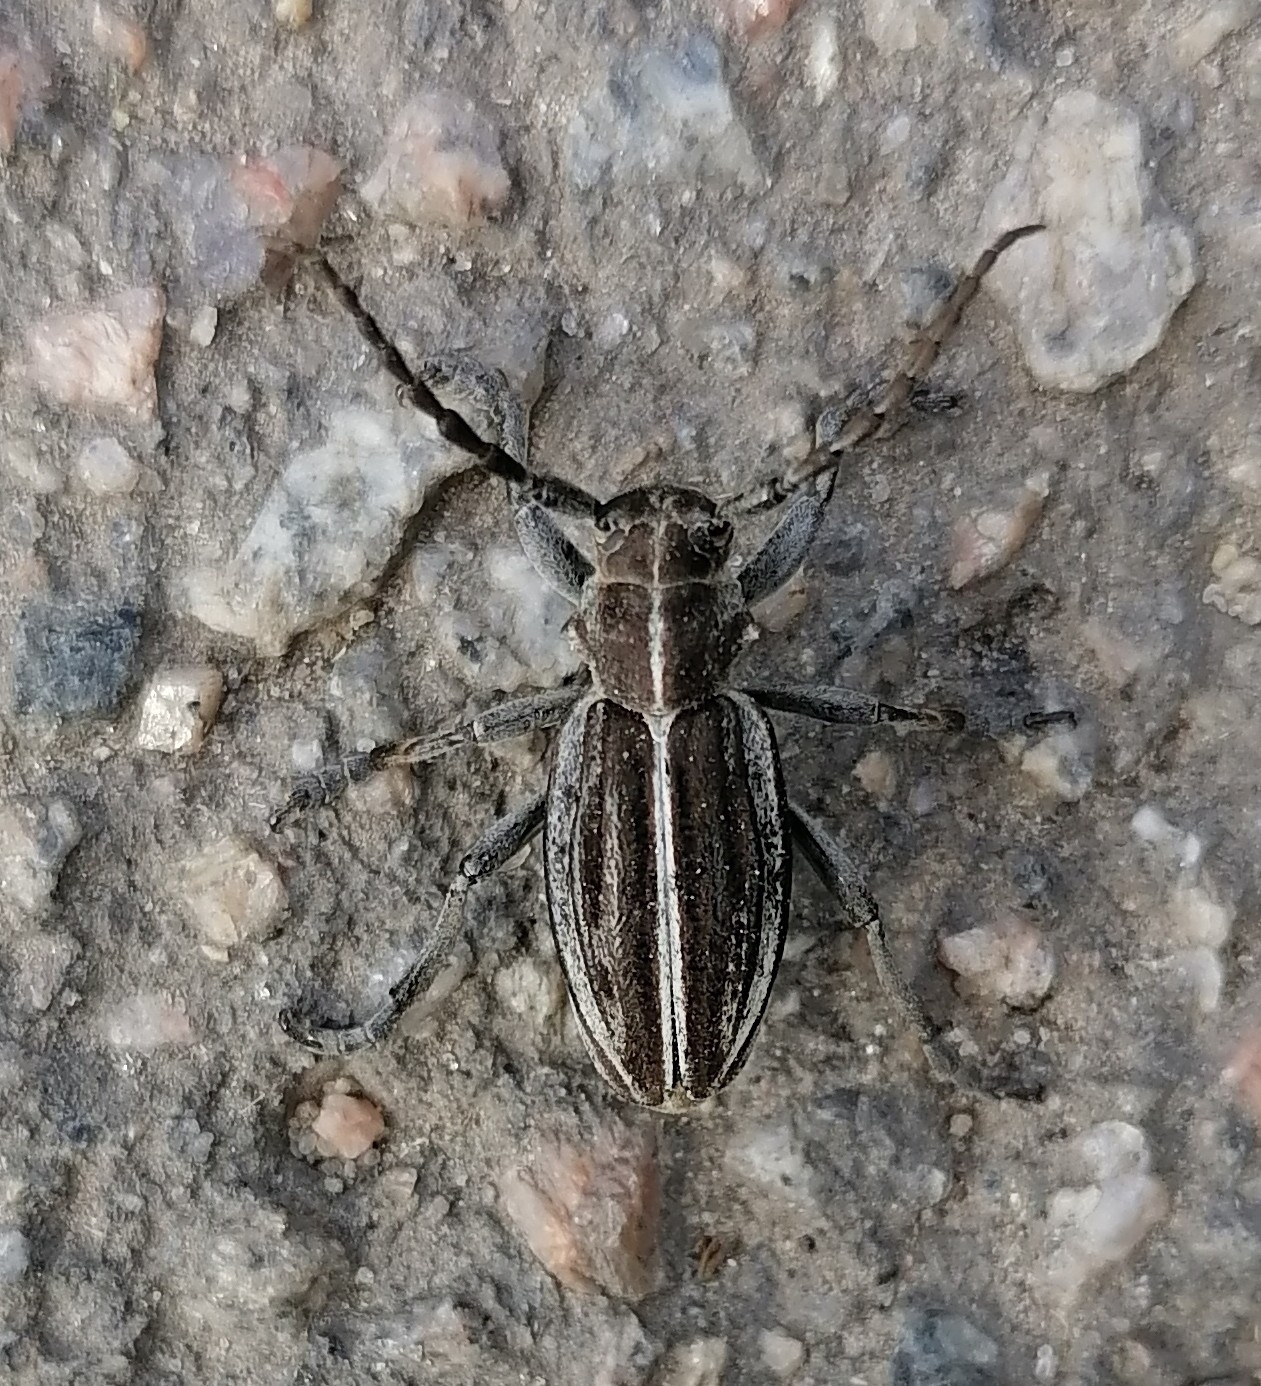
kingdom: Animalia
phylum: Arthropoda
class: Insecta
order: Coleoptera
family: Cerambycidae
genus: Dorcadion
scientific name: Dorcadion holosericeum
